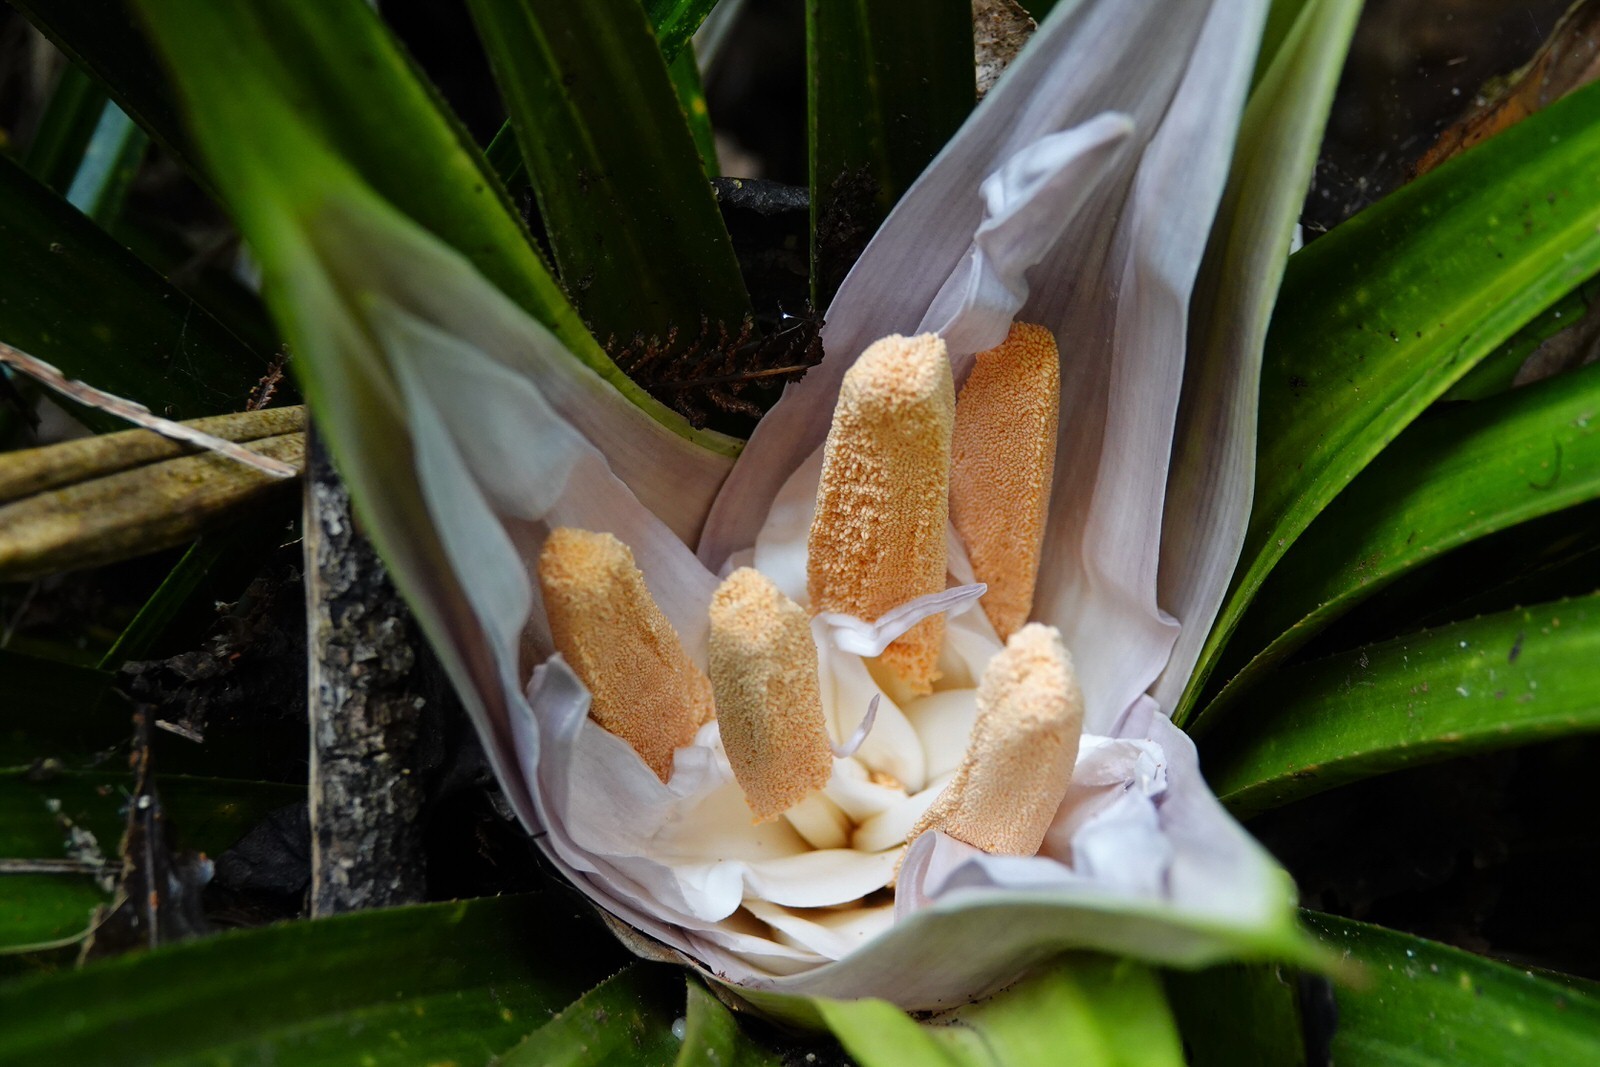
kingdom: Plantae
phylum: Tracheophyta
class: Liliopsida
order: Pandanales
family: Pandanaceae
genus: Freycinetia
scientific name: Freycinetia banksii
